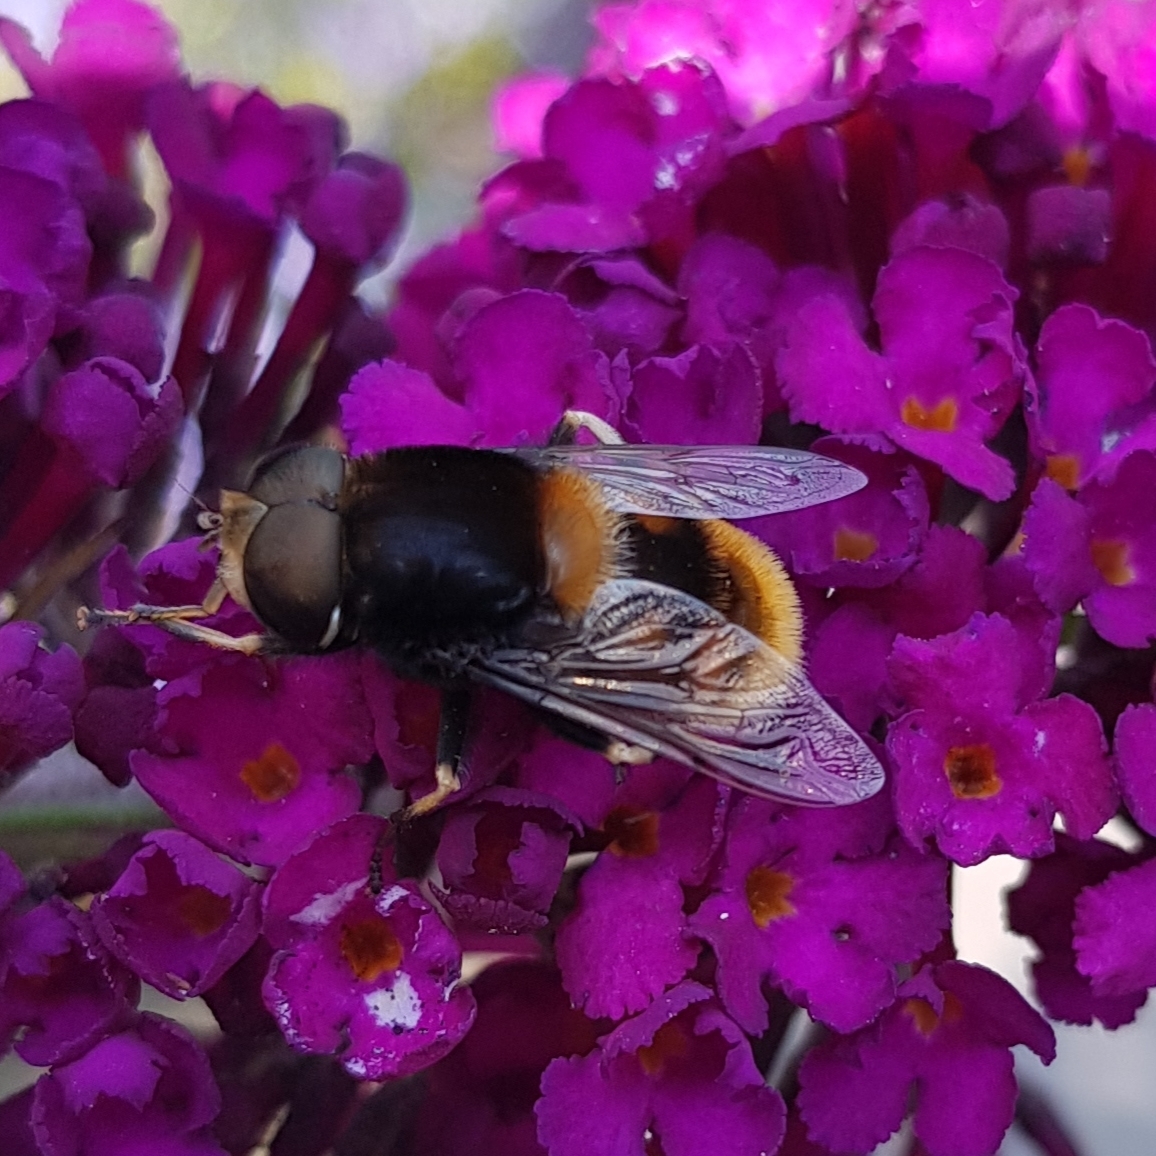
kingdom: Animalia
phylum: Arthropoda
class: Insecta
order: Diptera
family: Syrphidae
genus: Eristalis
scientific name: Eristalis intricaria
